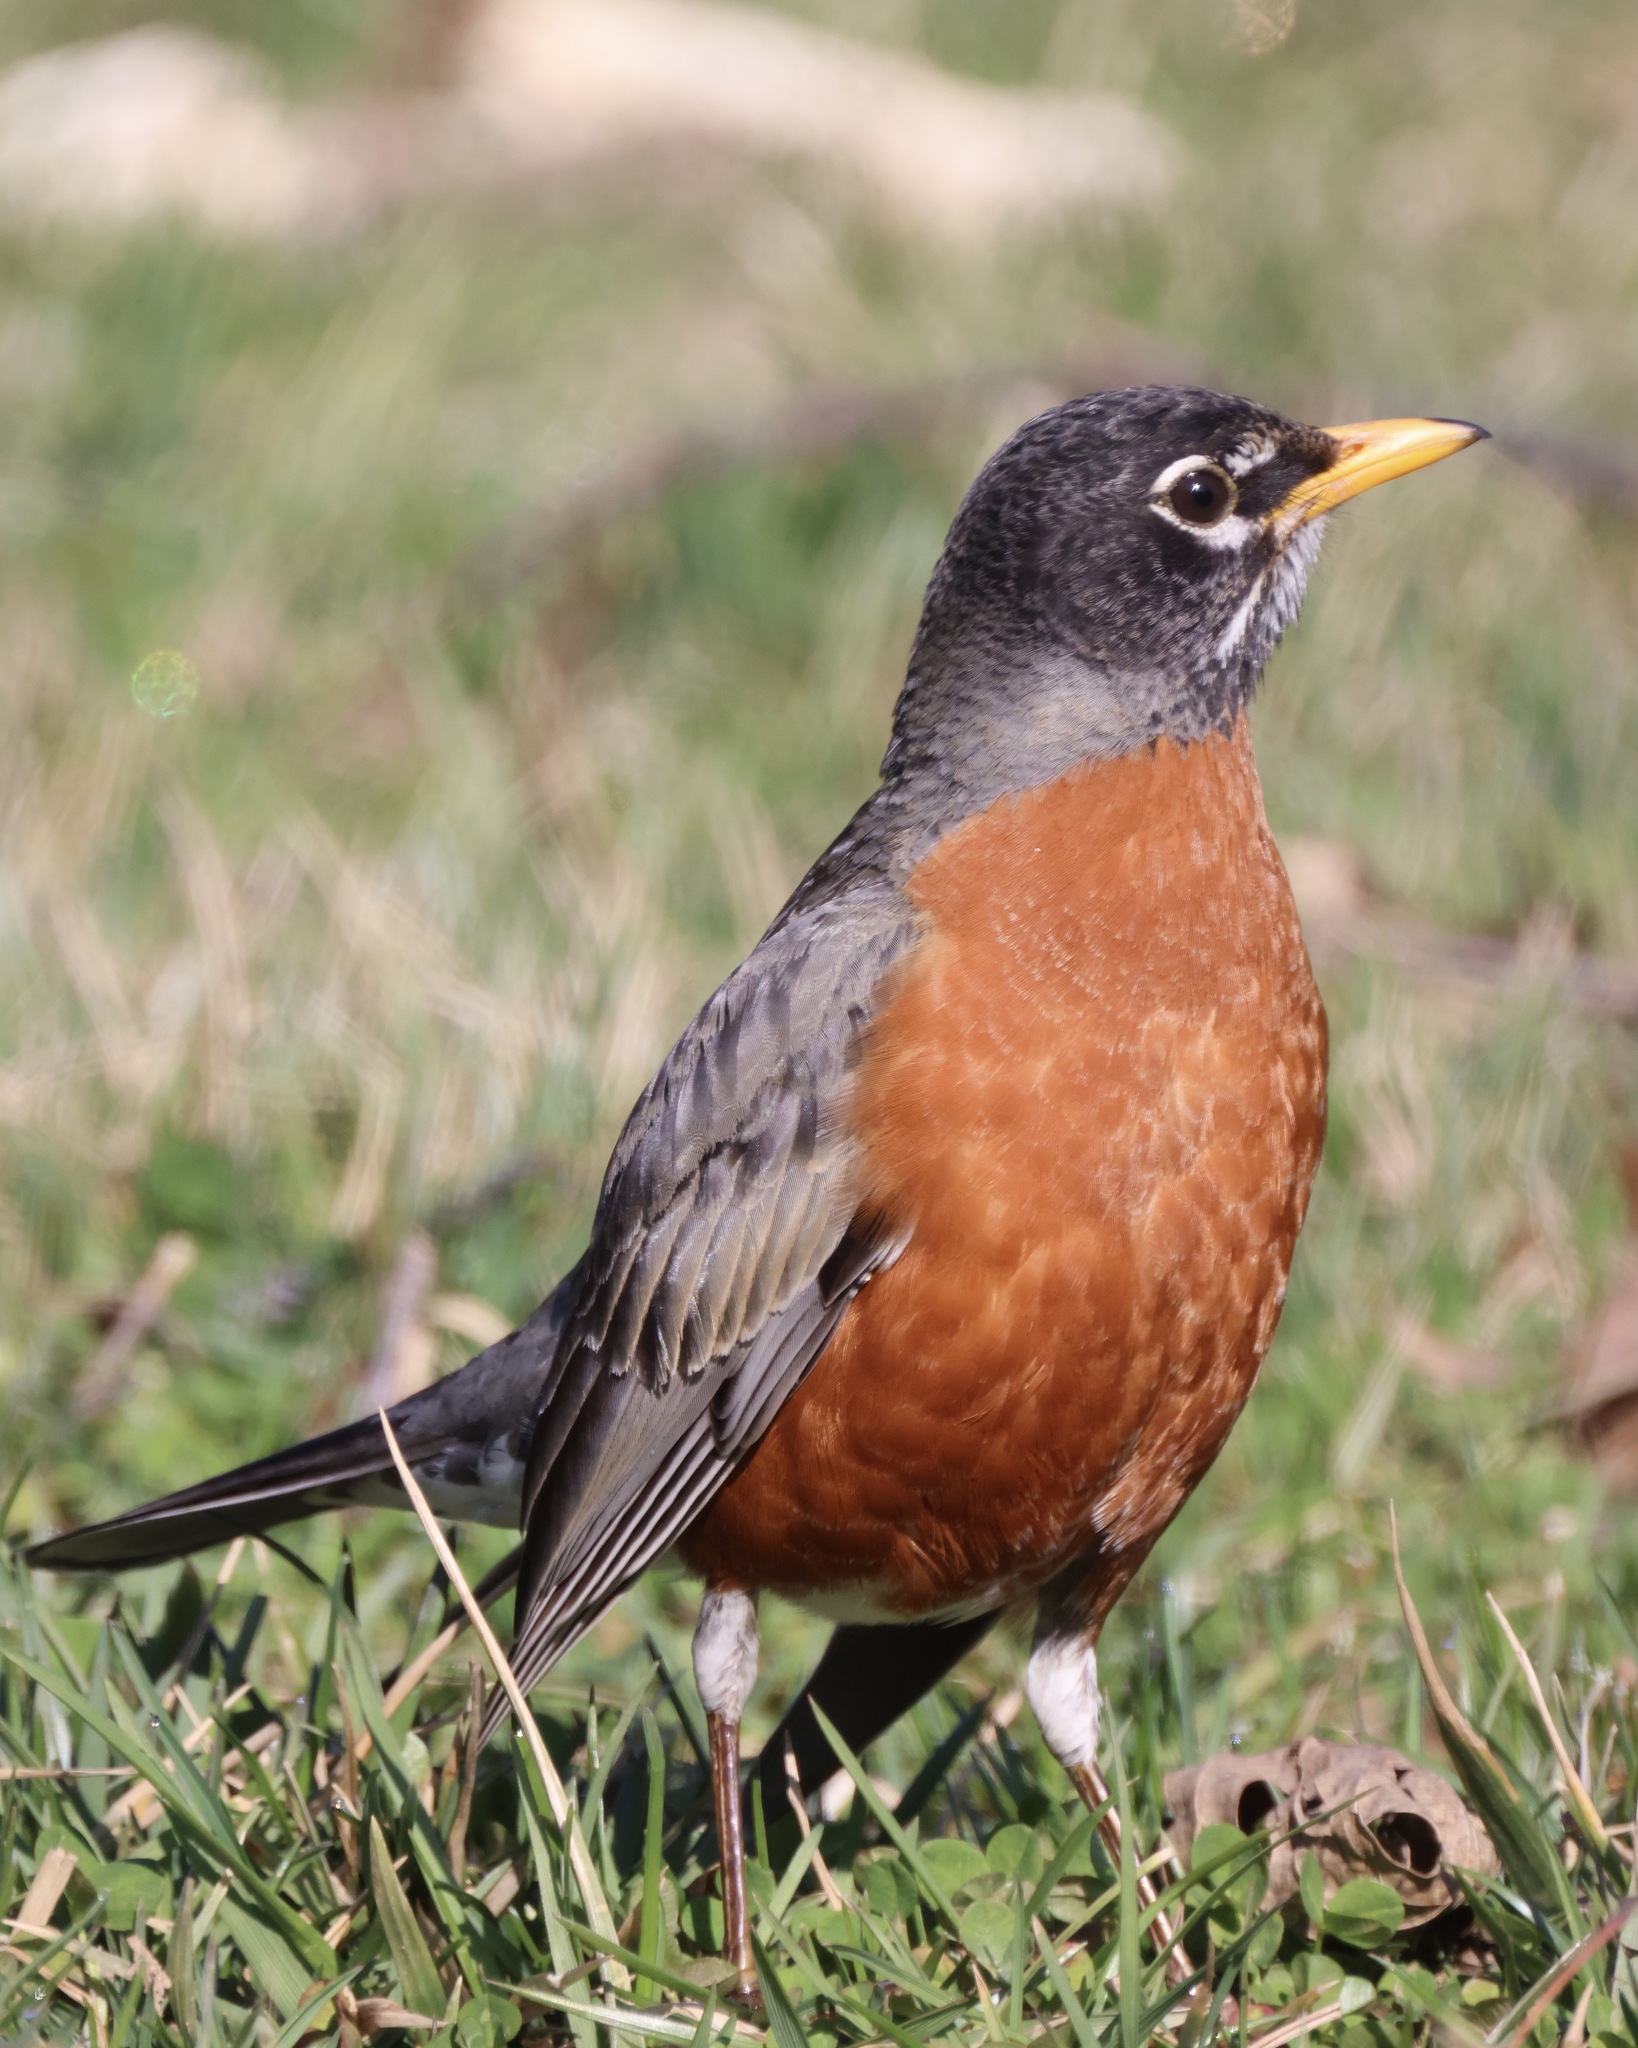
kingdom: Animalia
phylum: Chordata
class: Aves
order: Passeriformes
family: Turdidae
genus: Turdus
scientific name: Turdus migratorius
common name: American robin
